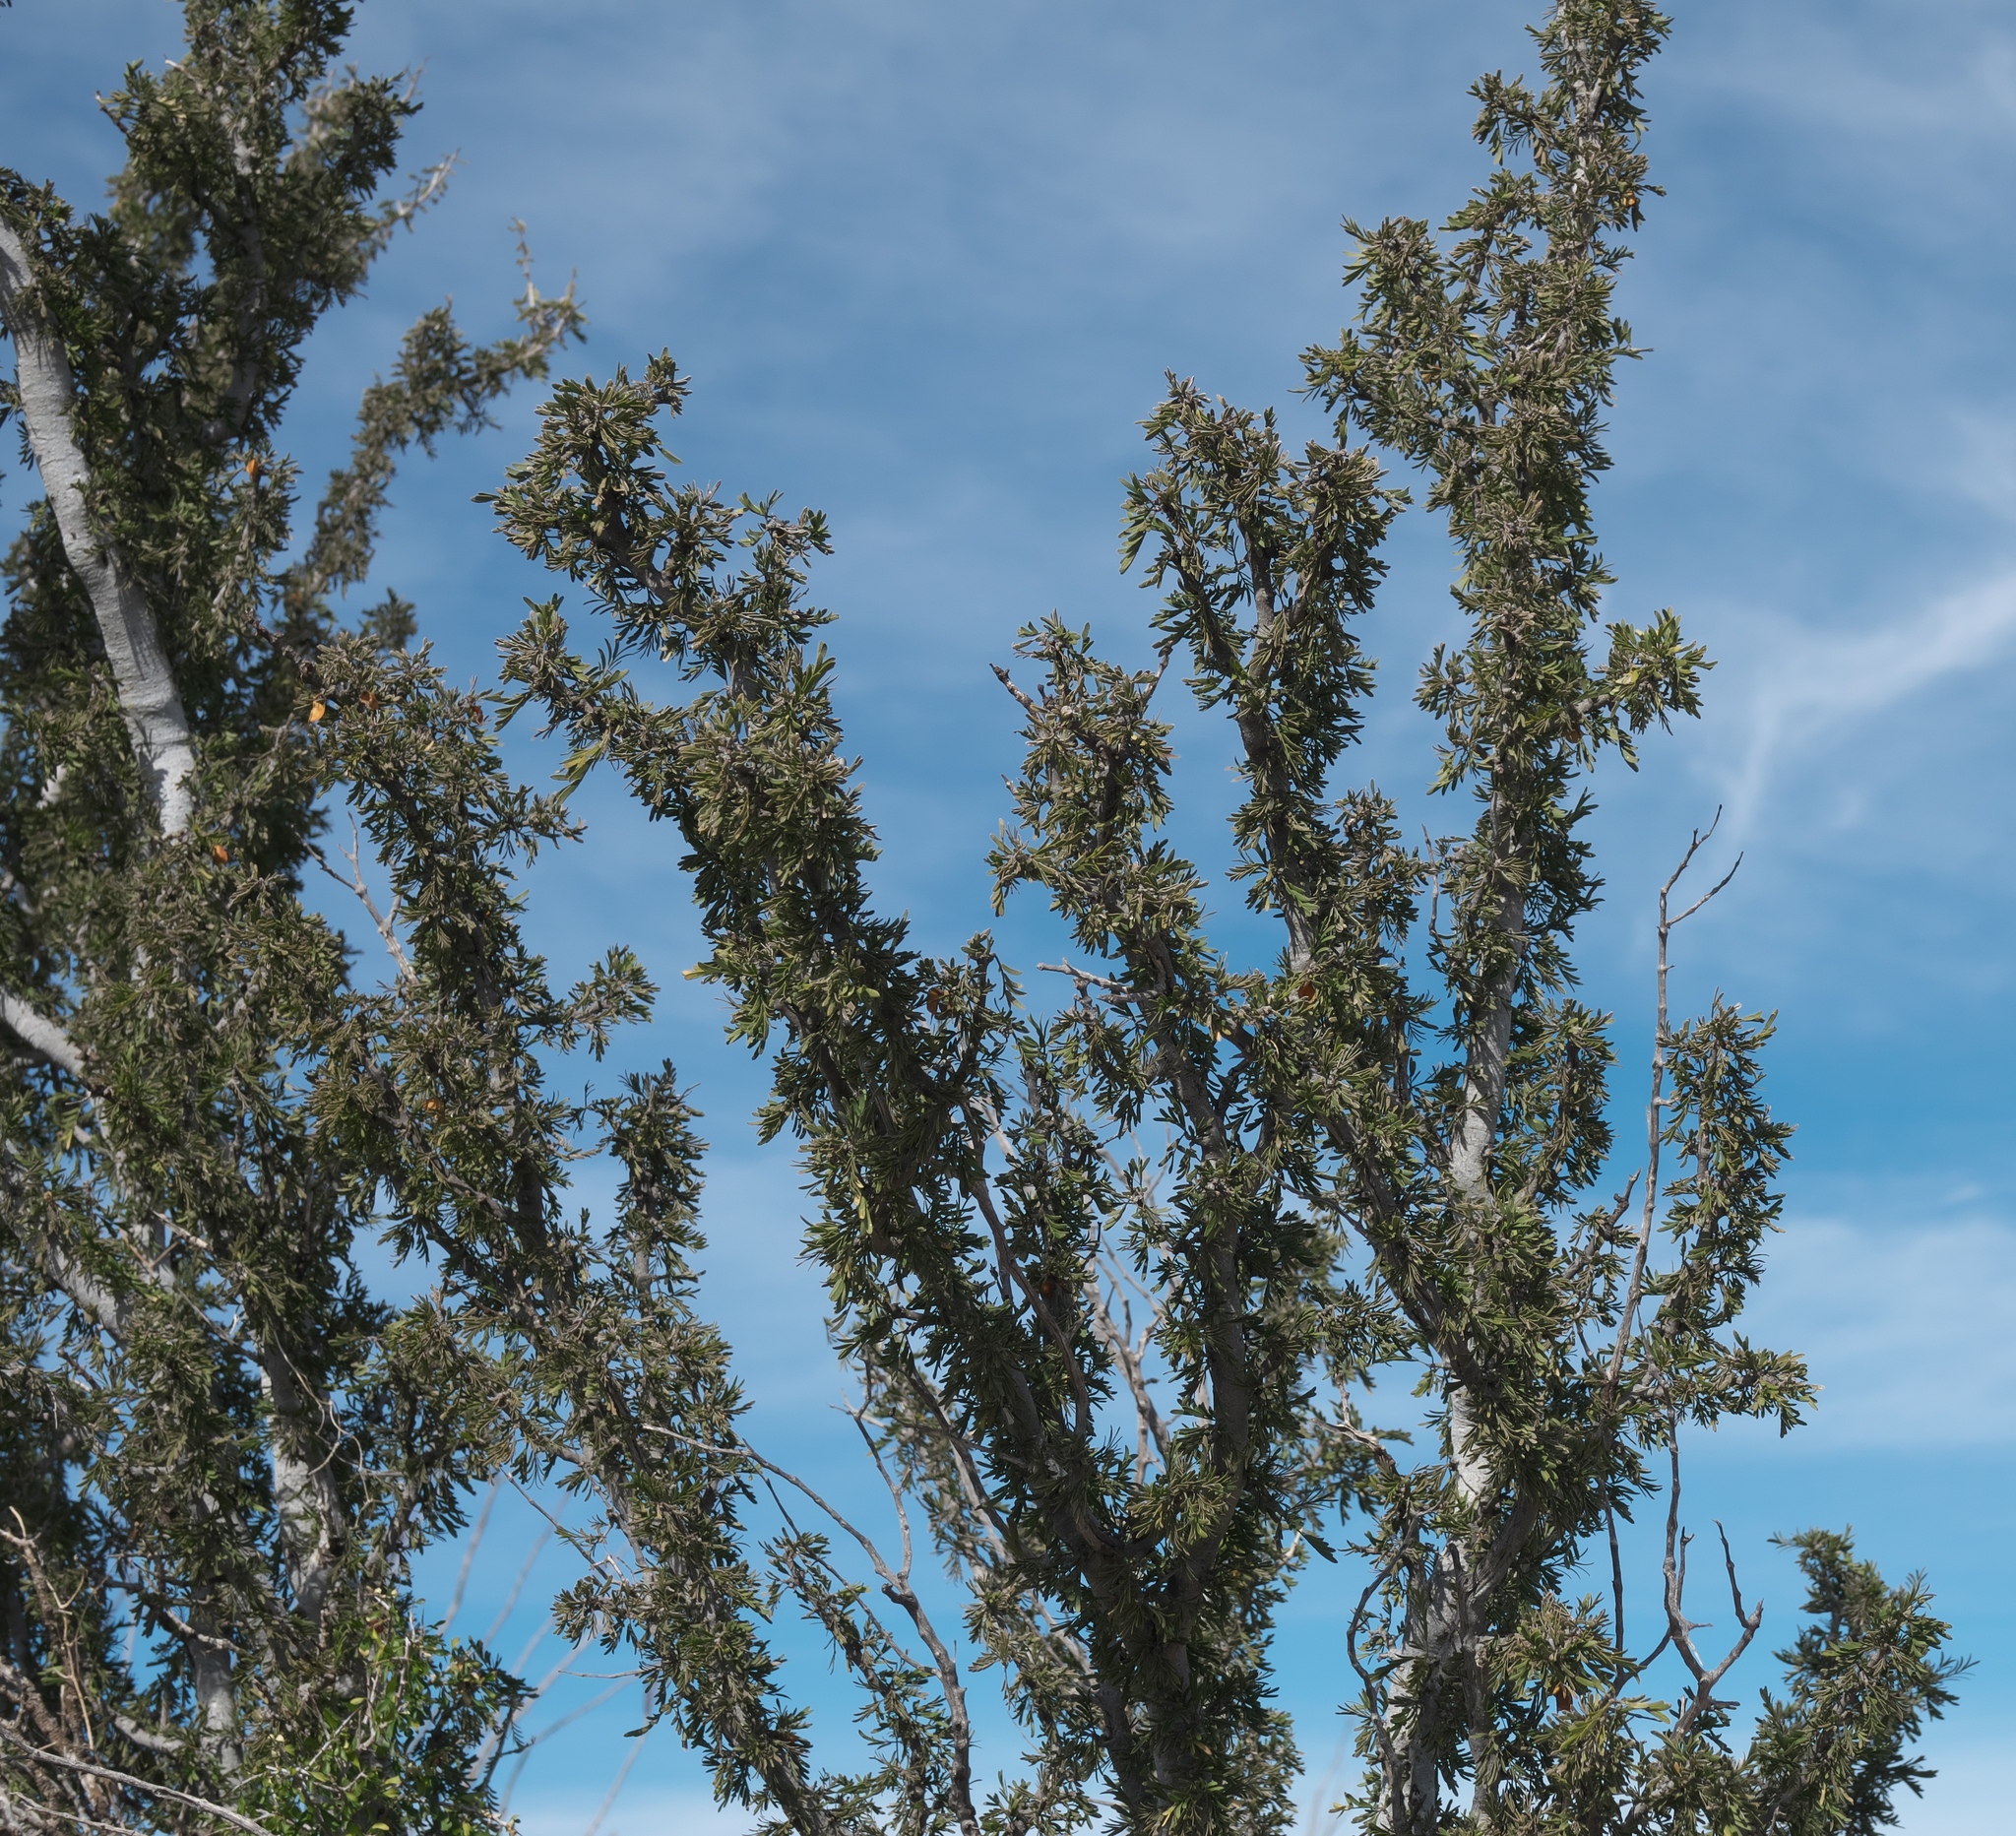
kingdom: Plantae
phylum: Tracheophyta
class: Magnoliopsida
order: Zygophyllales
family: Zygophyllaceae
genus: Porlieria
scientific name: Porlieria angustifolia
